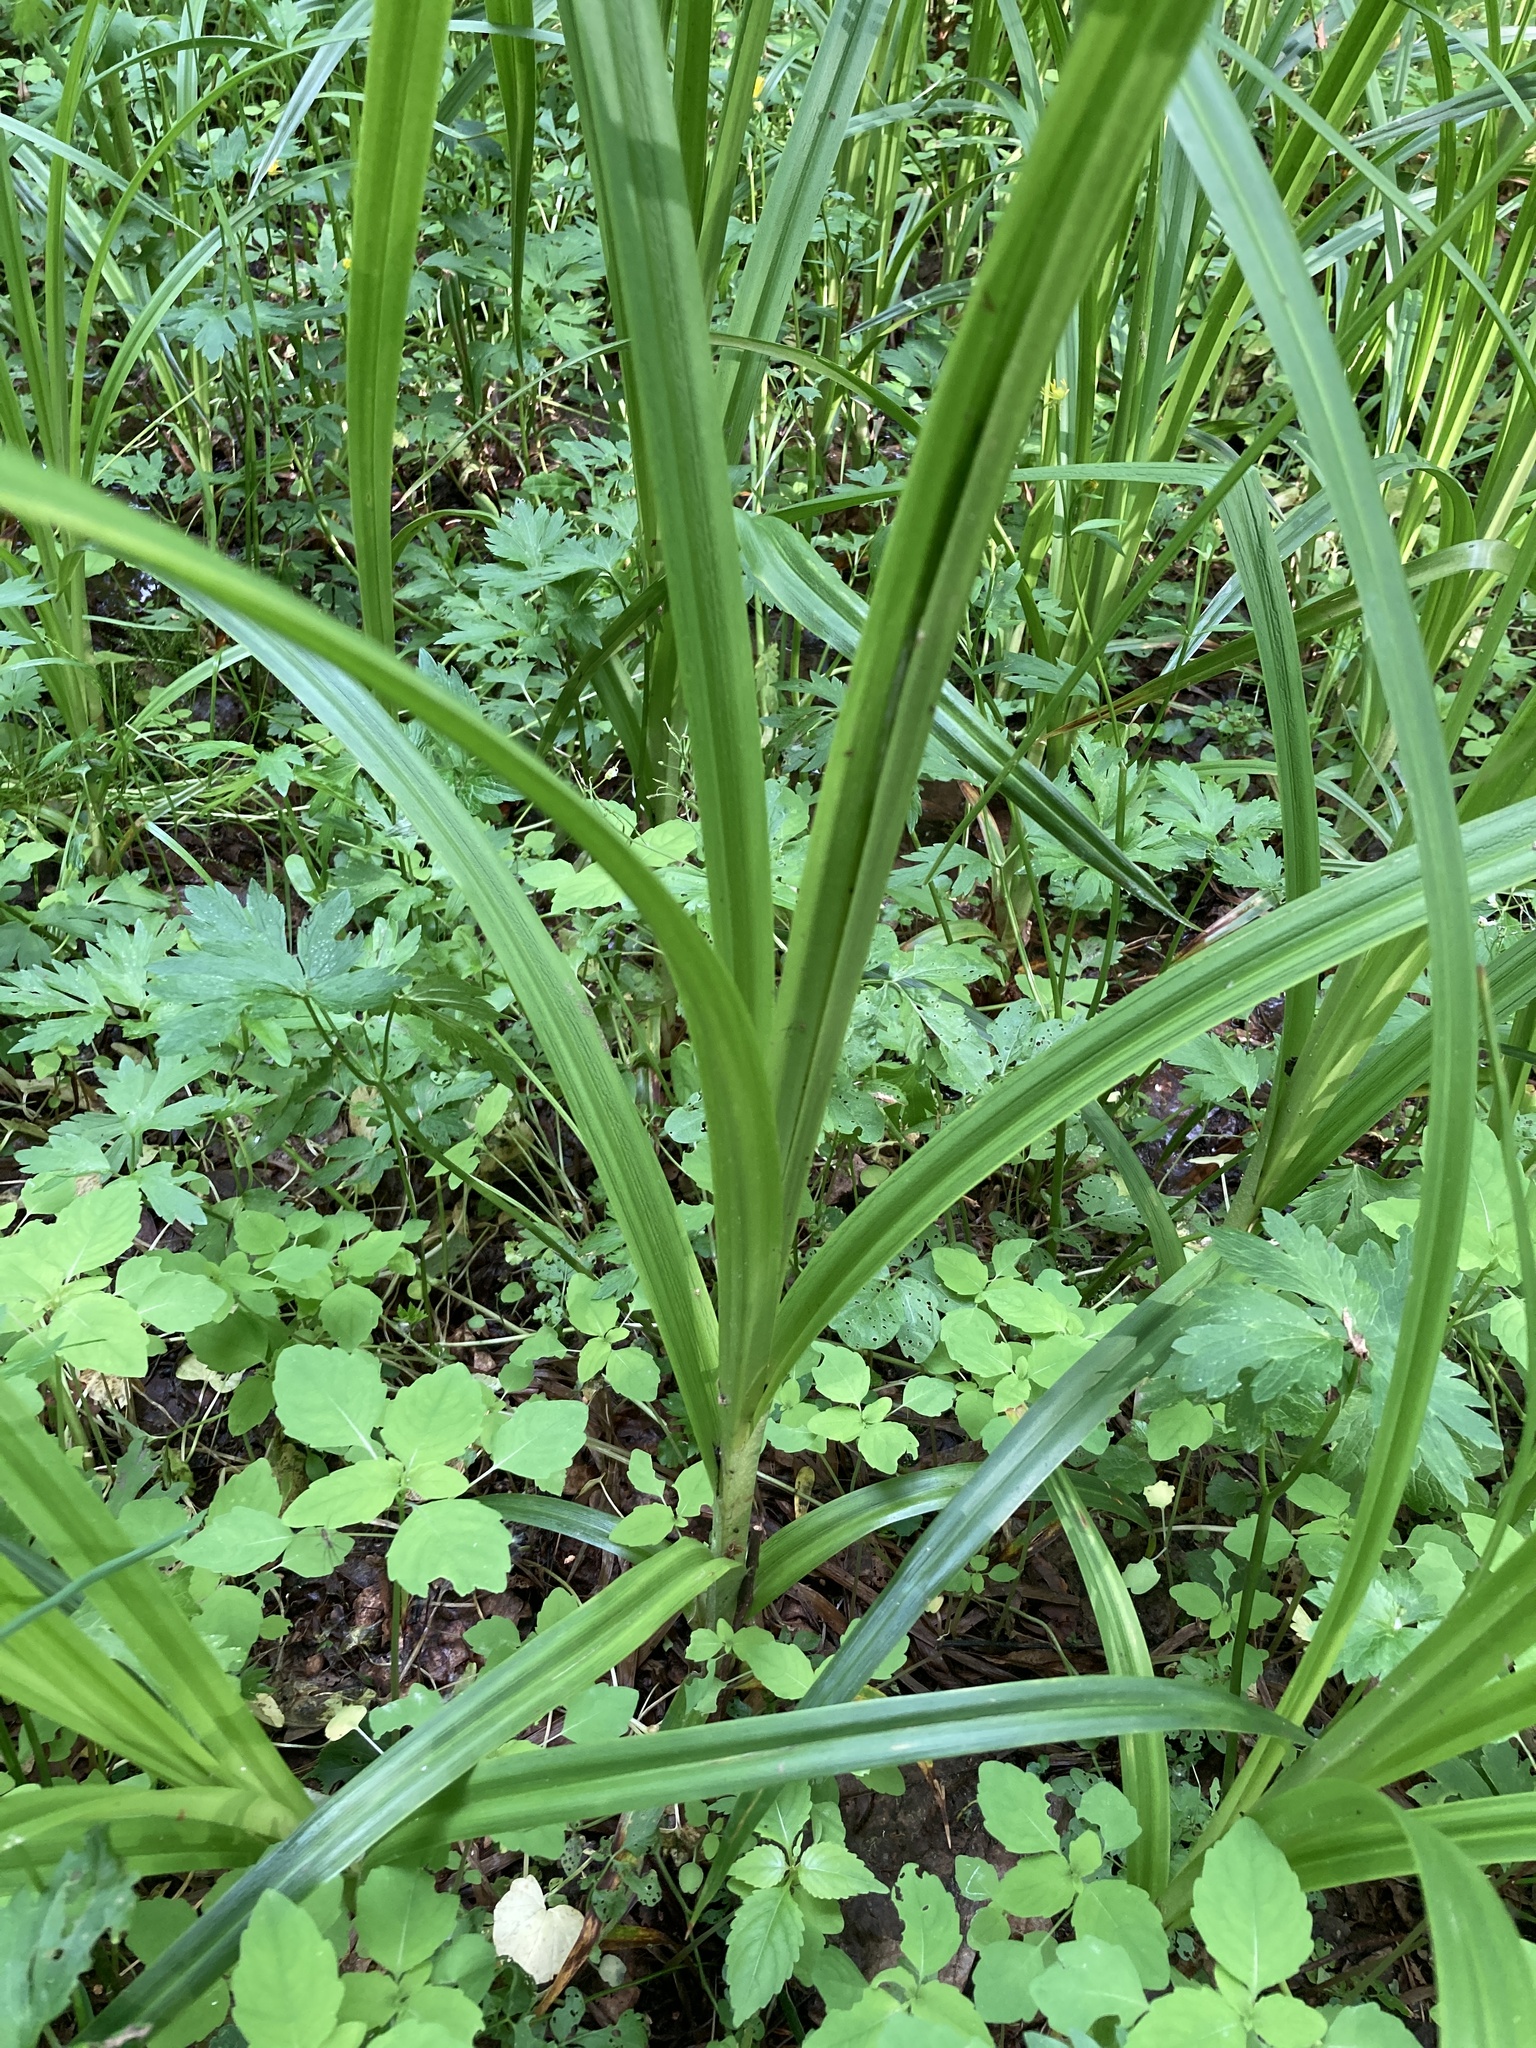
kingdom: Plantae
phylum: Tracheophyta
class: Liliopsida
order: Poales
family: Cyperaceae
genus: Scirpus
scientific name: Scirpus sylvaticus
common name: Wood club-rush
